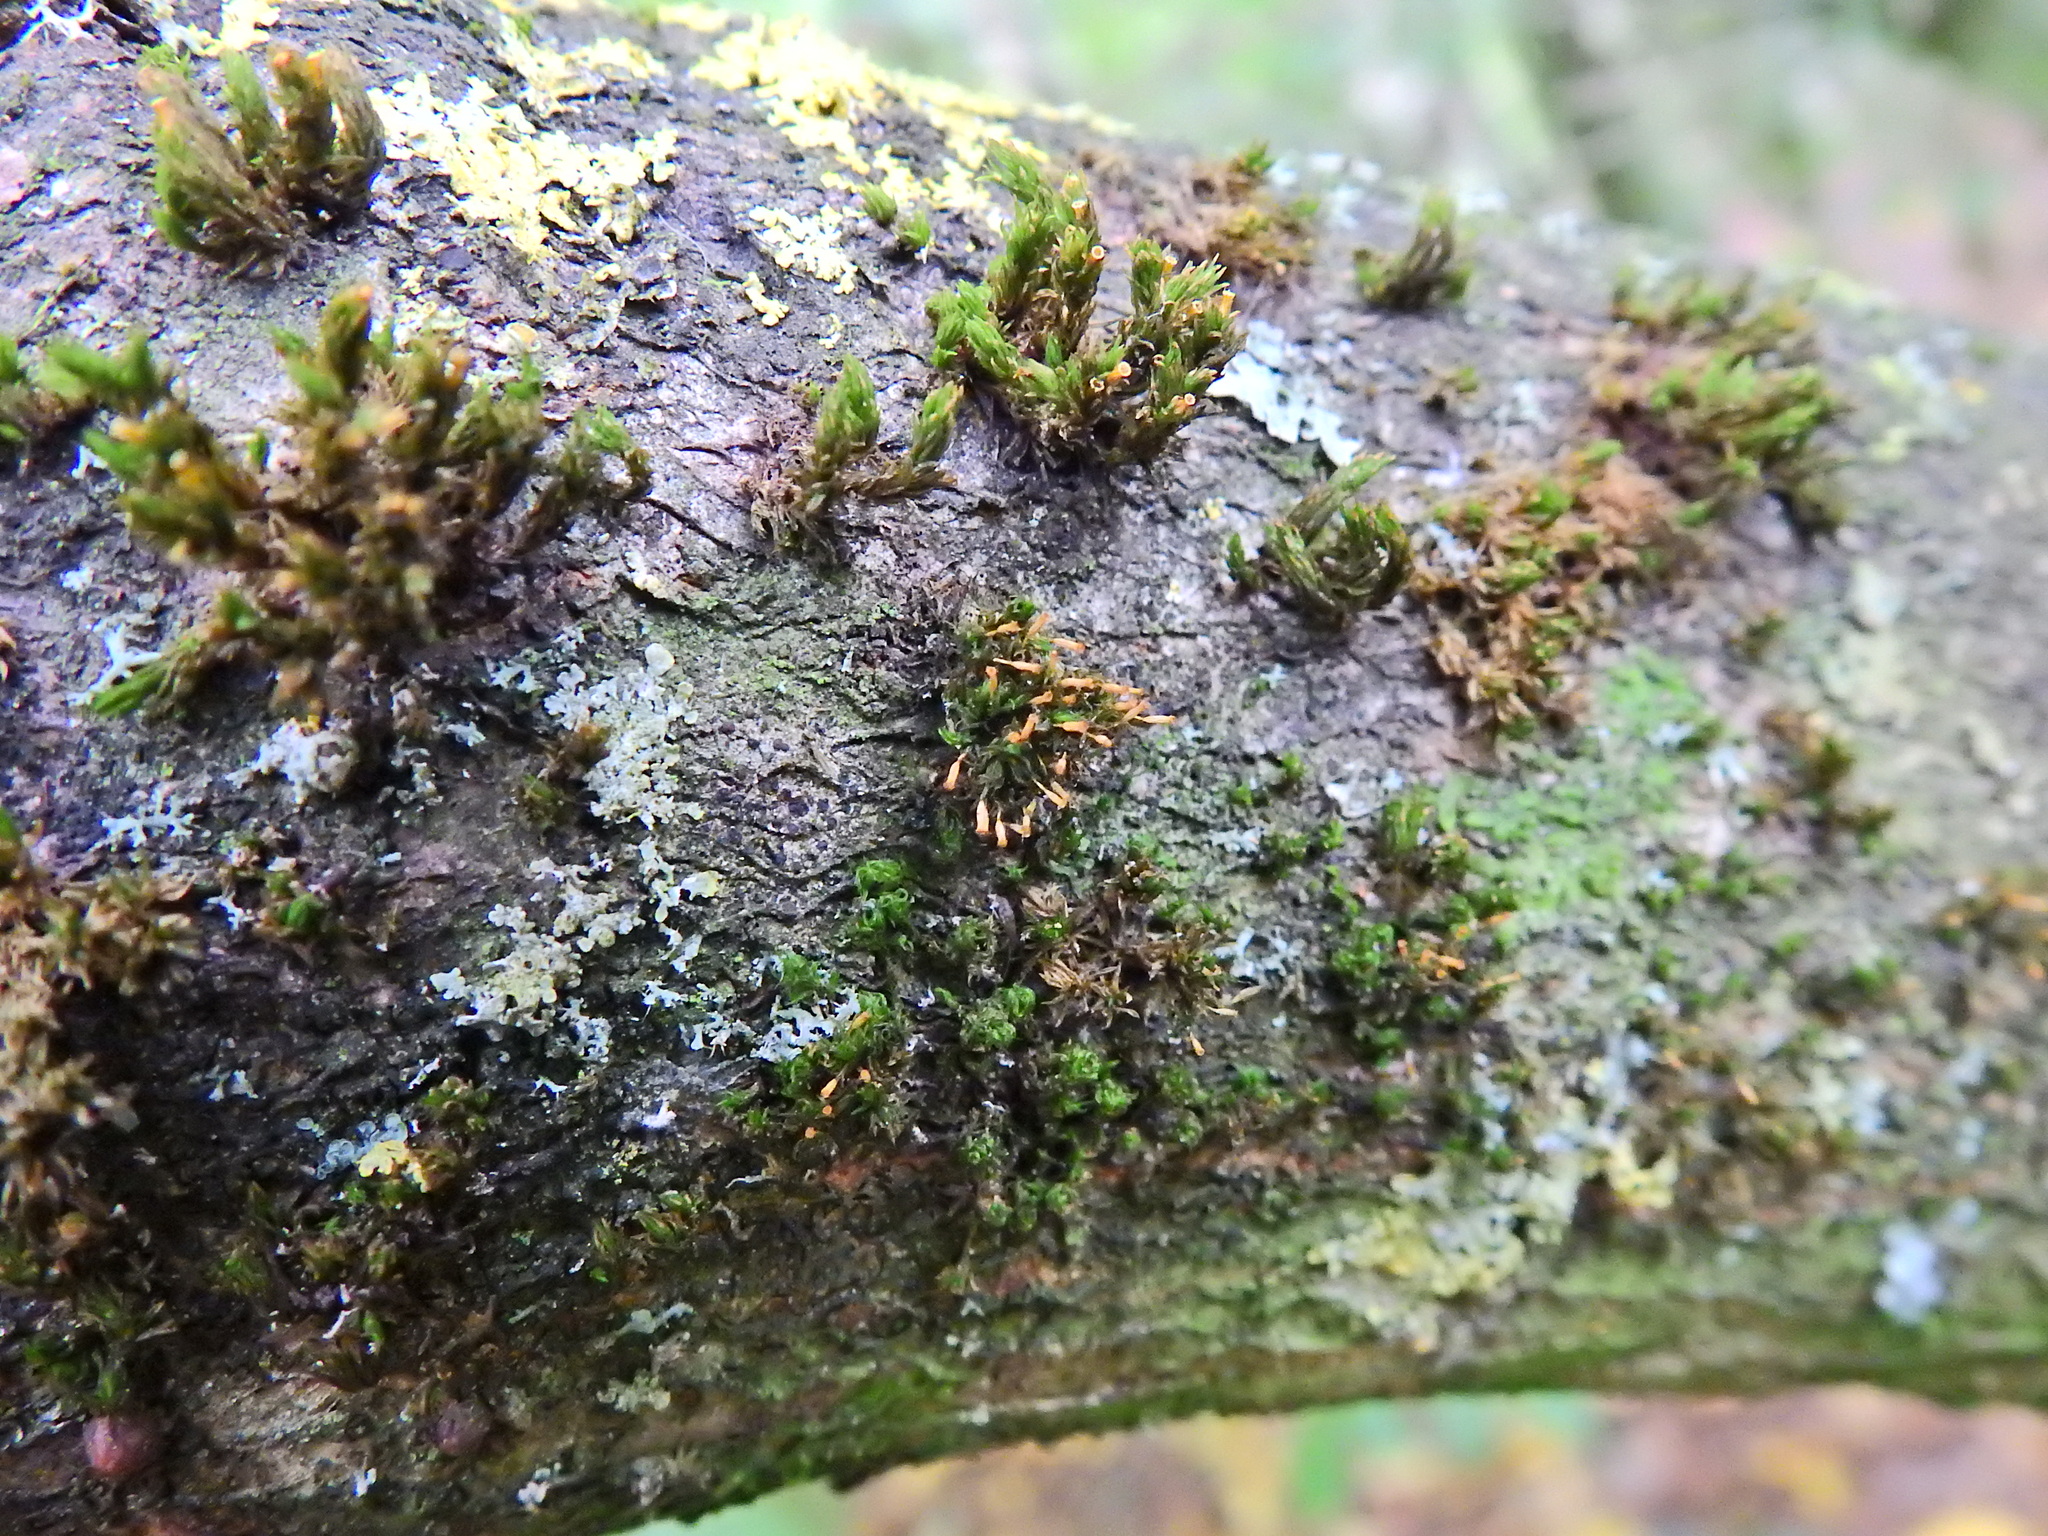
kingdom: Plantae
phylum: Bryophyta
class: Bryopsida
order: Orthotrichales
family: Orthotrichaceae
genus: Orthotrichum
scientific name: Orthotrichum pulchellum
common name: Elegant bristle-moss
